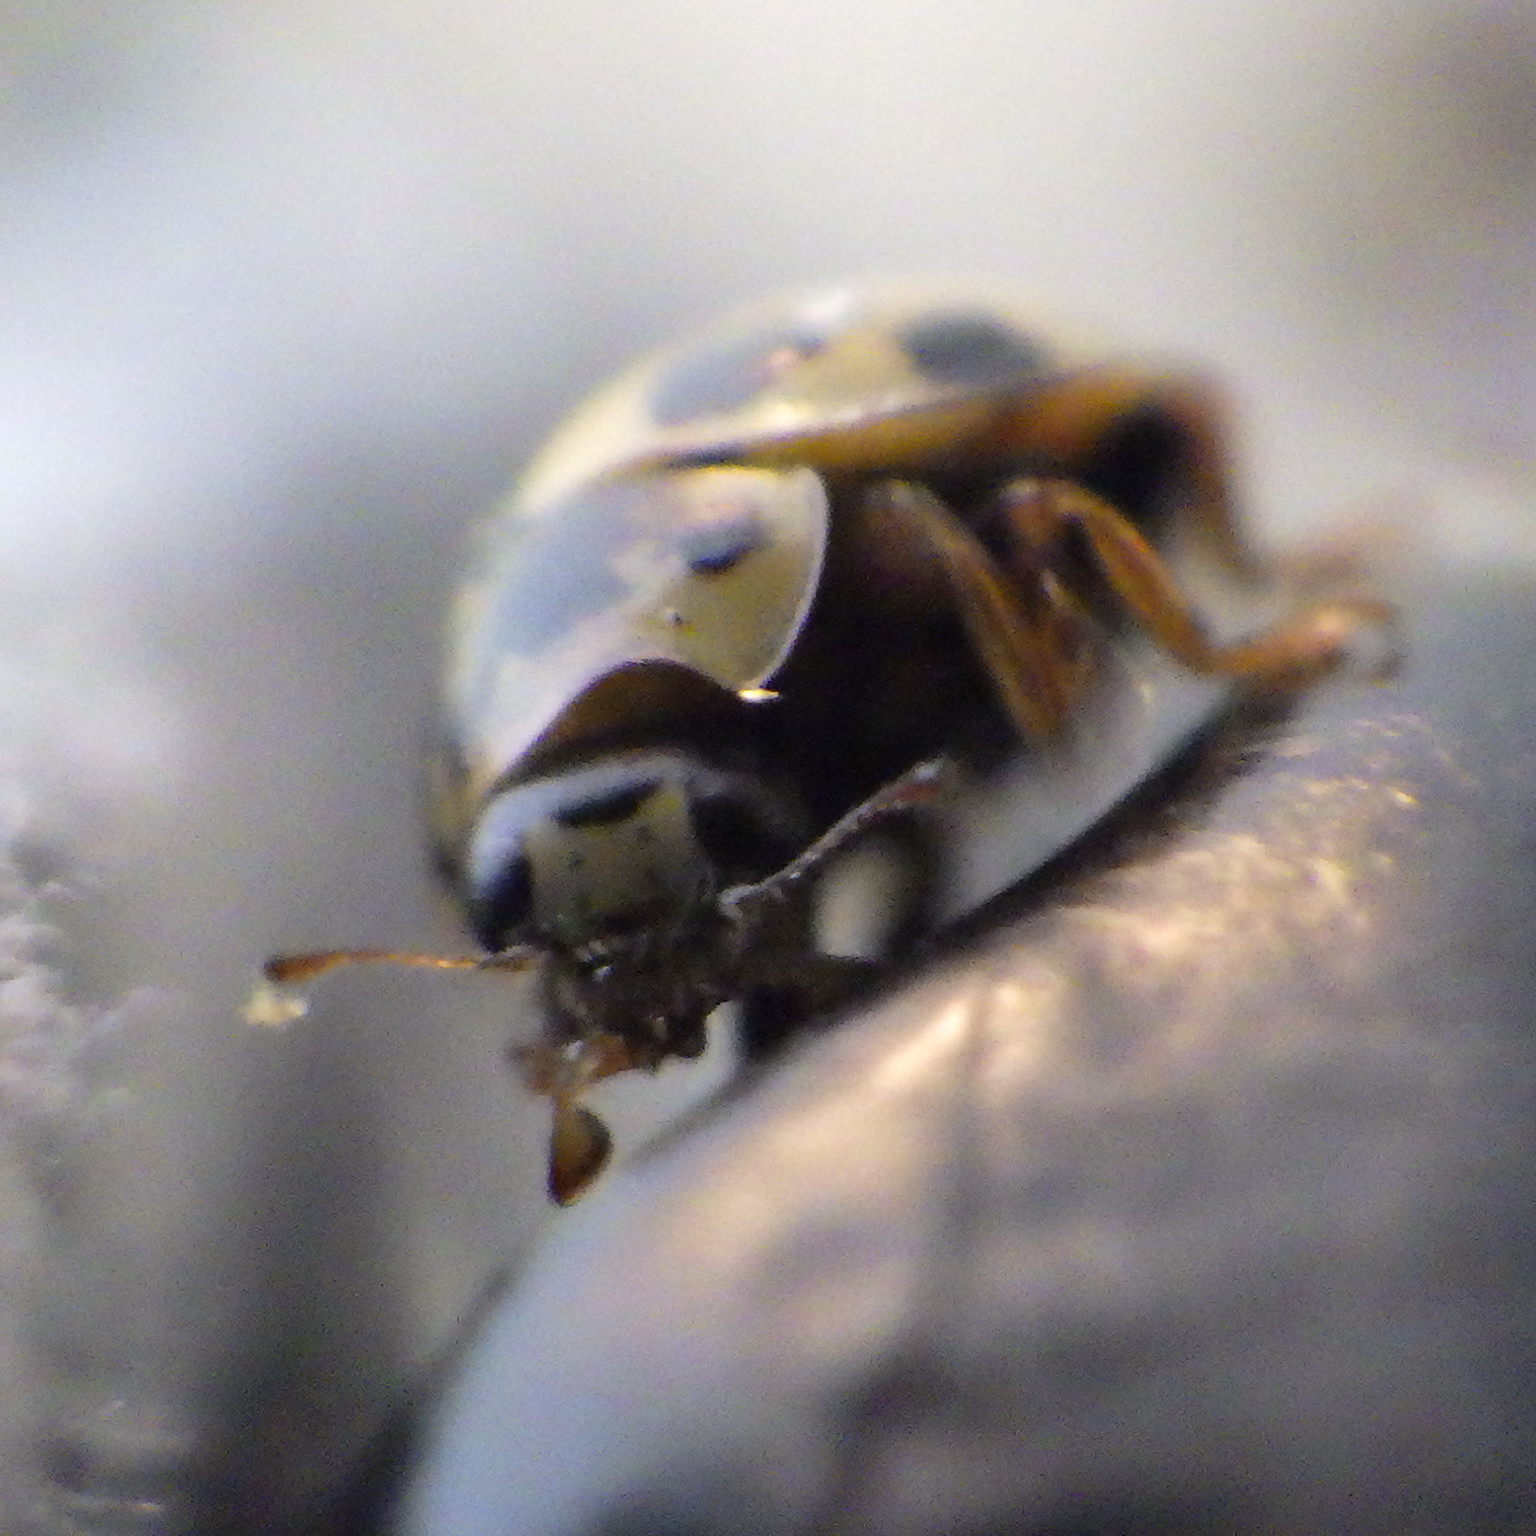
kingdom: Animalia
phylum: Arthropoda
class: Insecta
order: Coleoptera
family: Coccinellidae
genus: Propylaea
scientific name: Propylaea quatuordecimpunctata
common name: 14-spotted ladybird beetle
